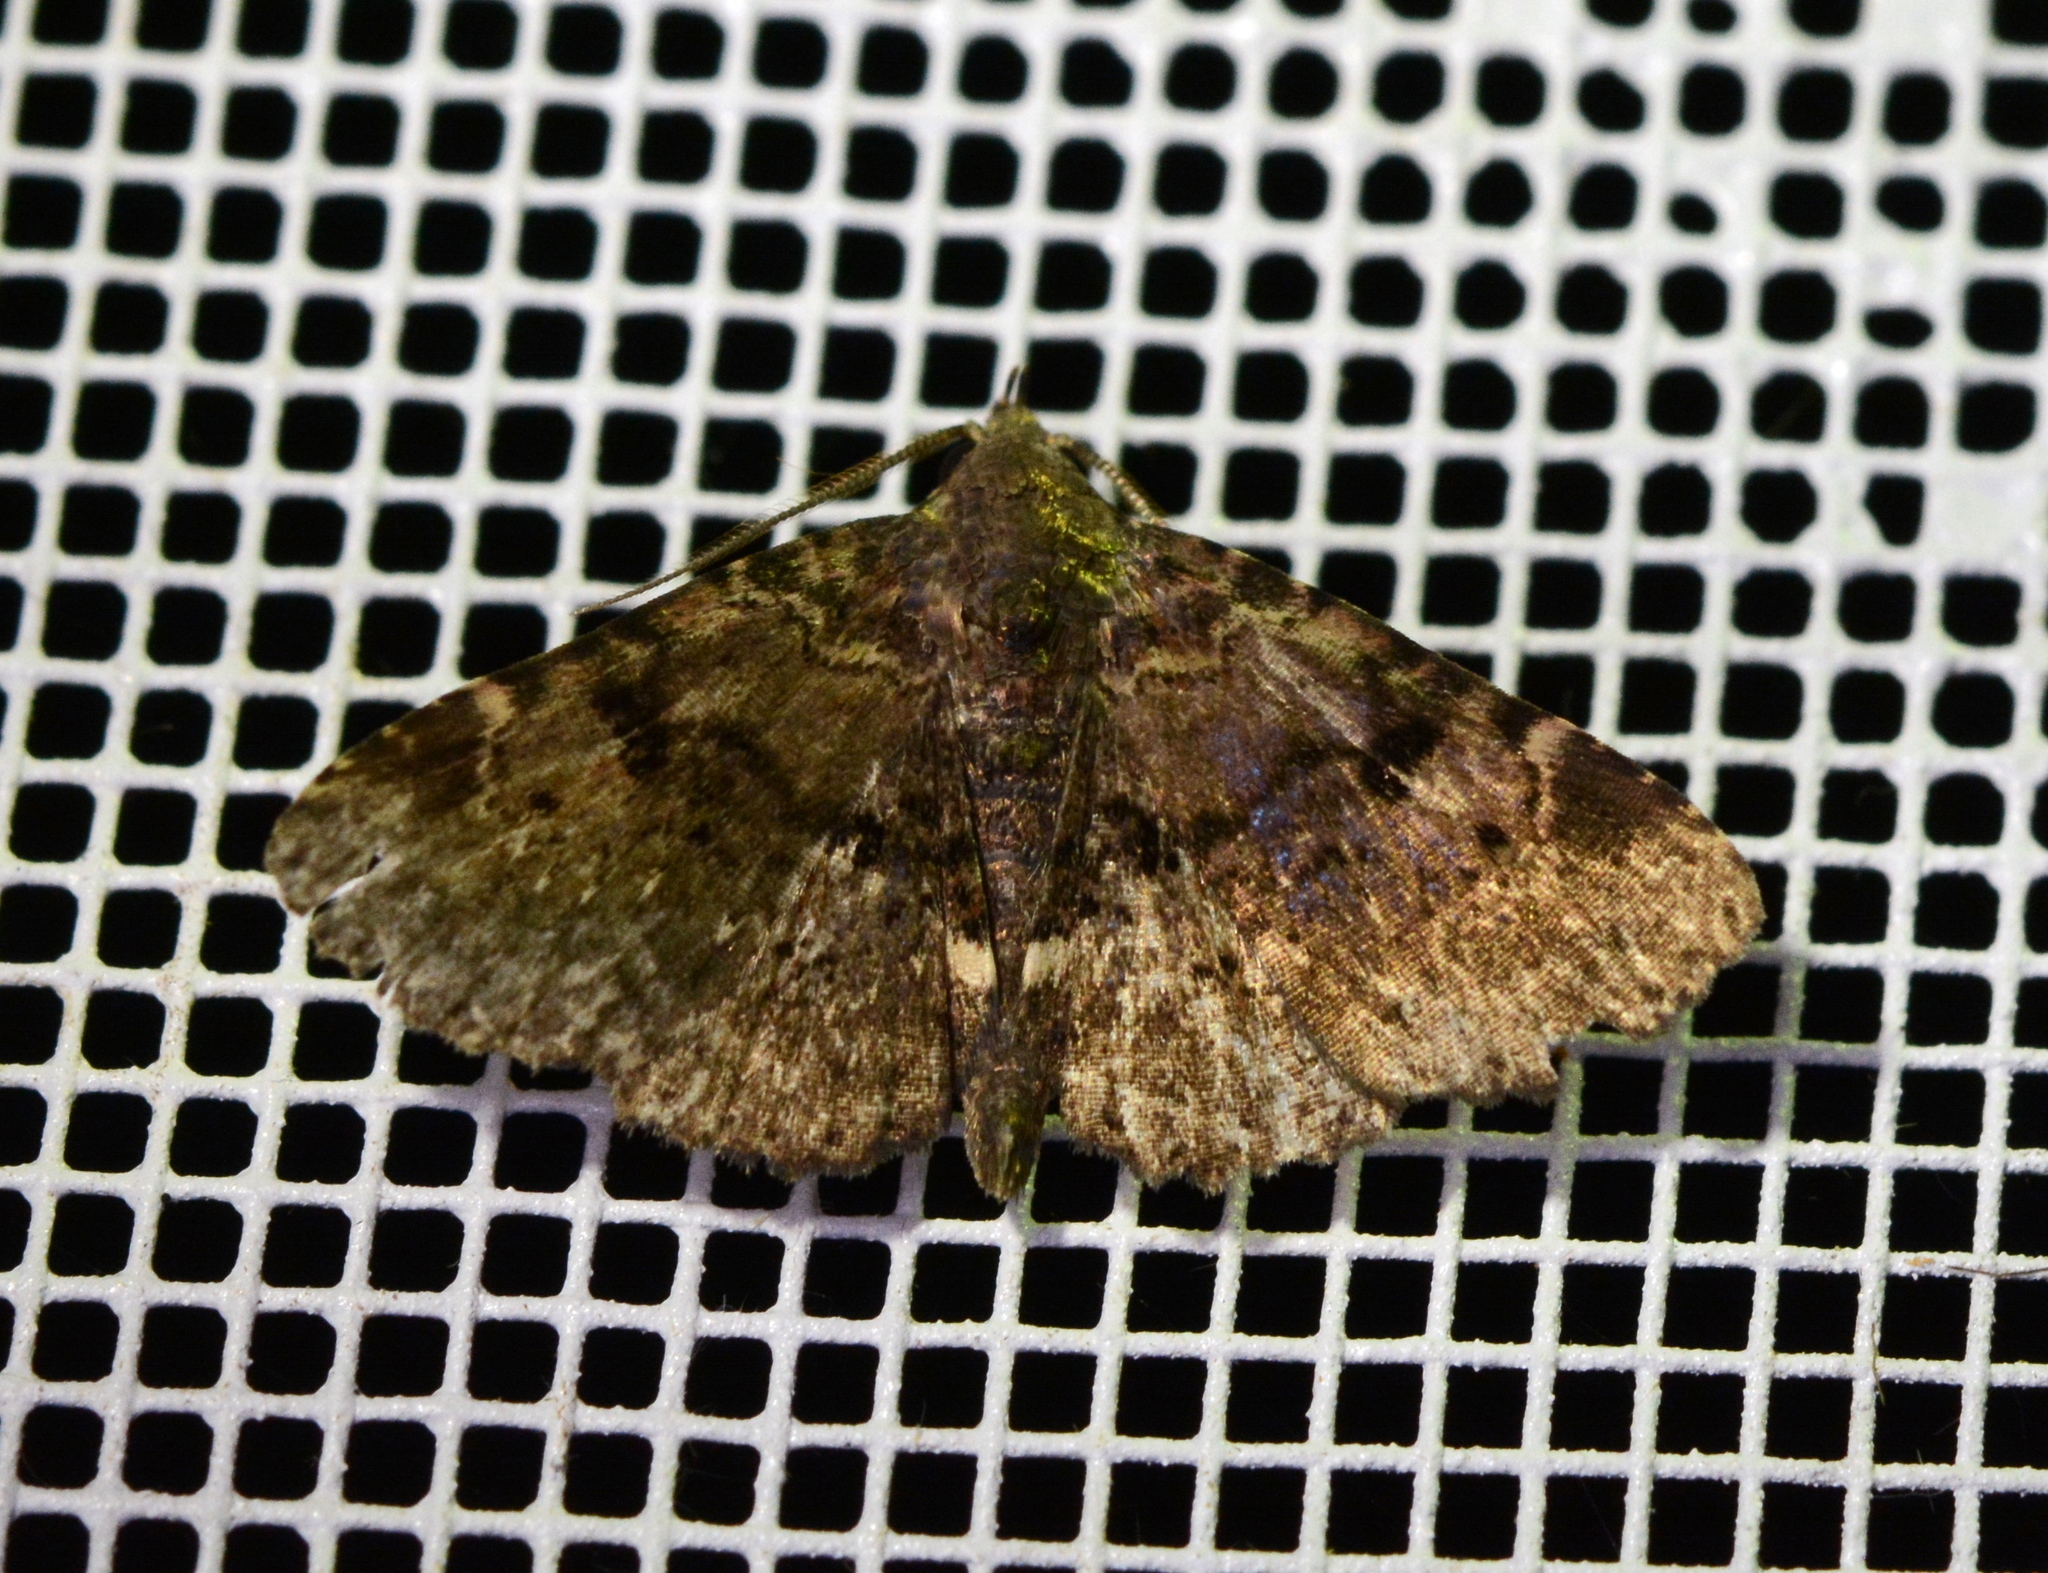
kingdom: Animalia
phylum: Arthropoda
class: Insecta
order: Lepidoptera
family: Erebidae
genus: Metalectra
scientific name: Metalectra quadrisignata
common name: Four-spotted fungus moth
